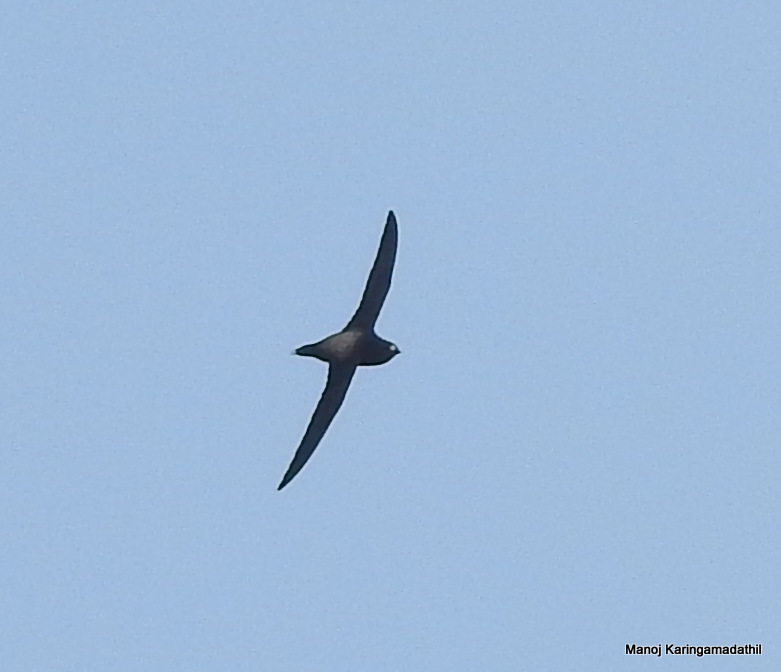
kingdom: Animalia
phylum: Chordata
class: Aves
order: Apodiformes
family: Apodidae
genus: Hirundapus
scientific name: Hirundapus giganteus
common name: Brown-backed needletail
